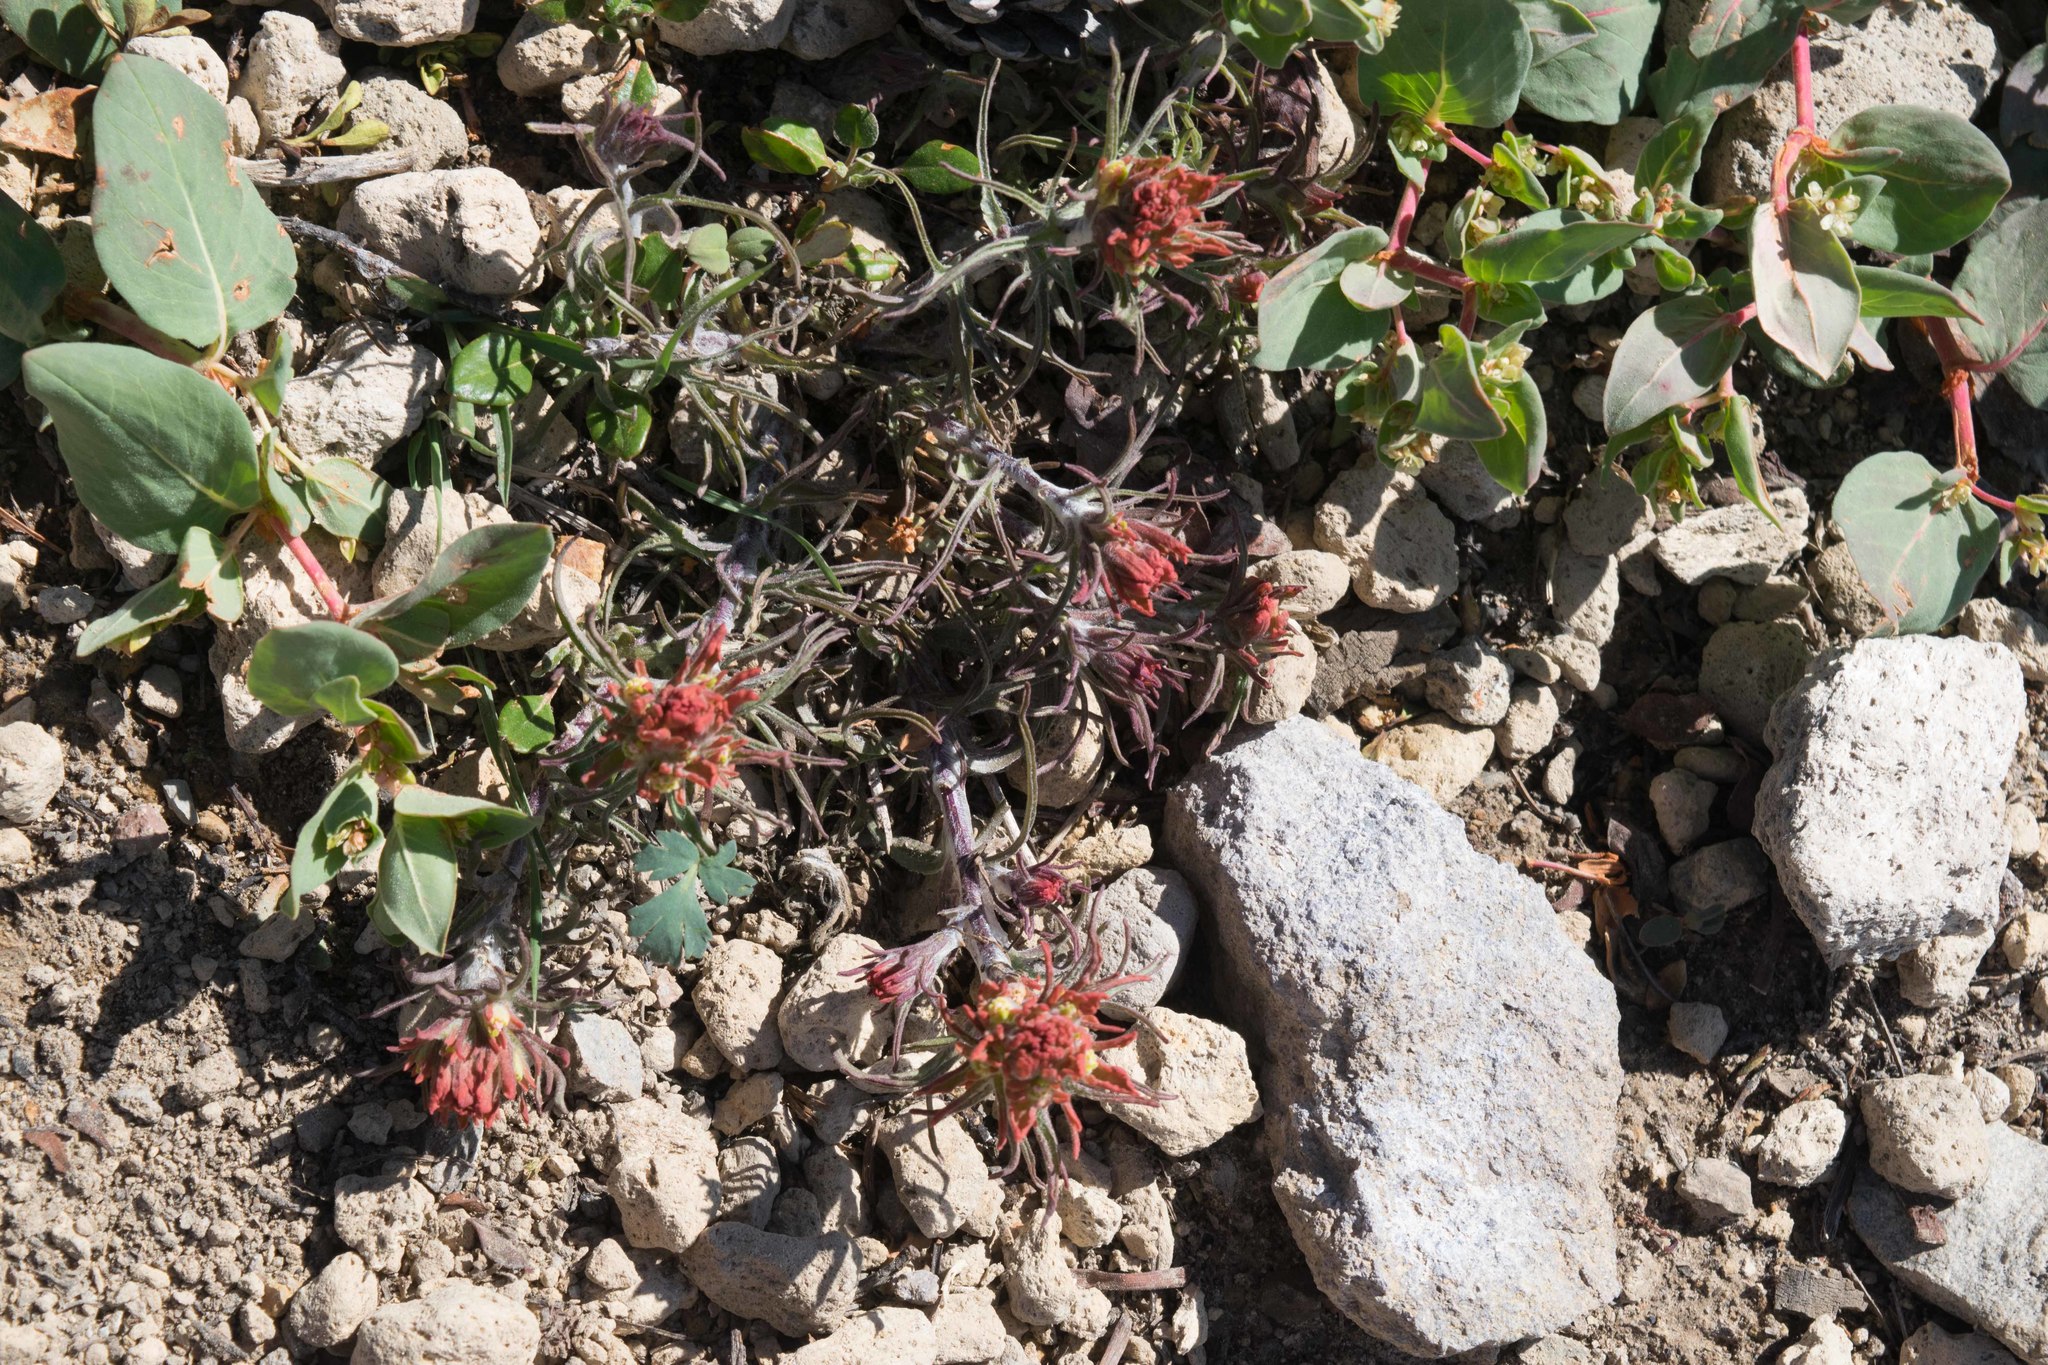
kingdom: Plantae
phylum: Tracheophyta
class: Magnoliopsida
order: Lamiales
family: Orobanchaceae
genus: Castilleja
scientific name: Castilleja arachnoidea
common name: Cobwebby indian paintbrush
